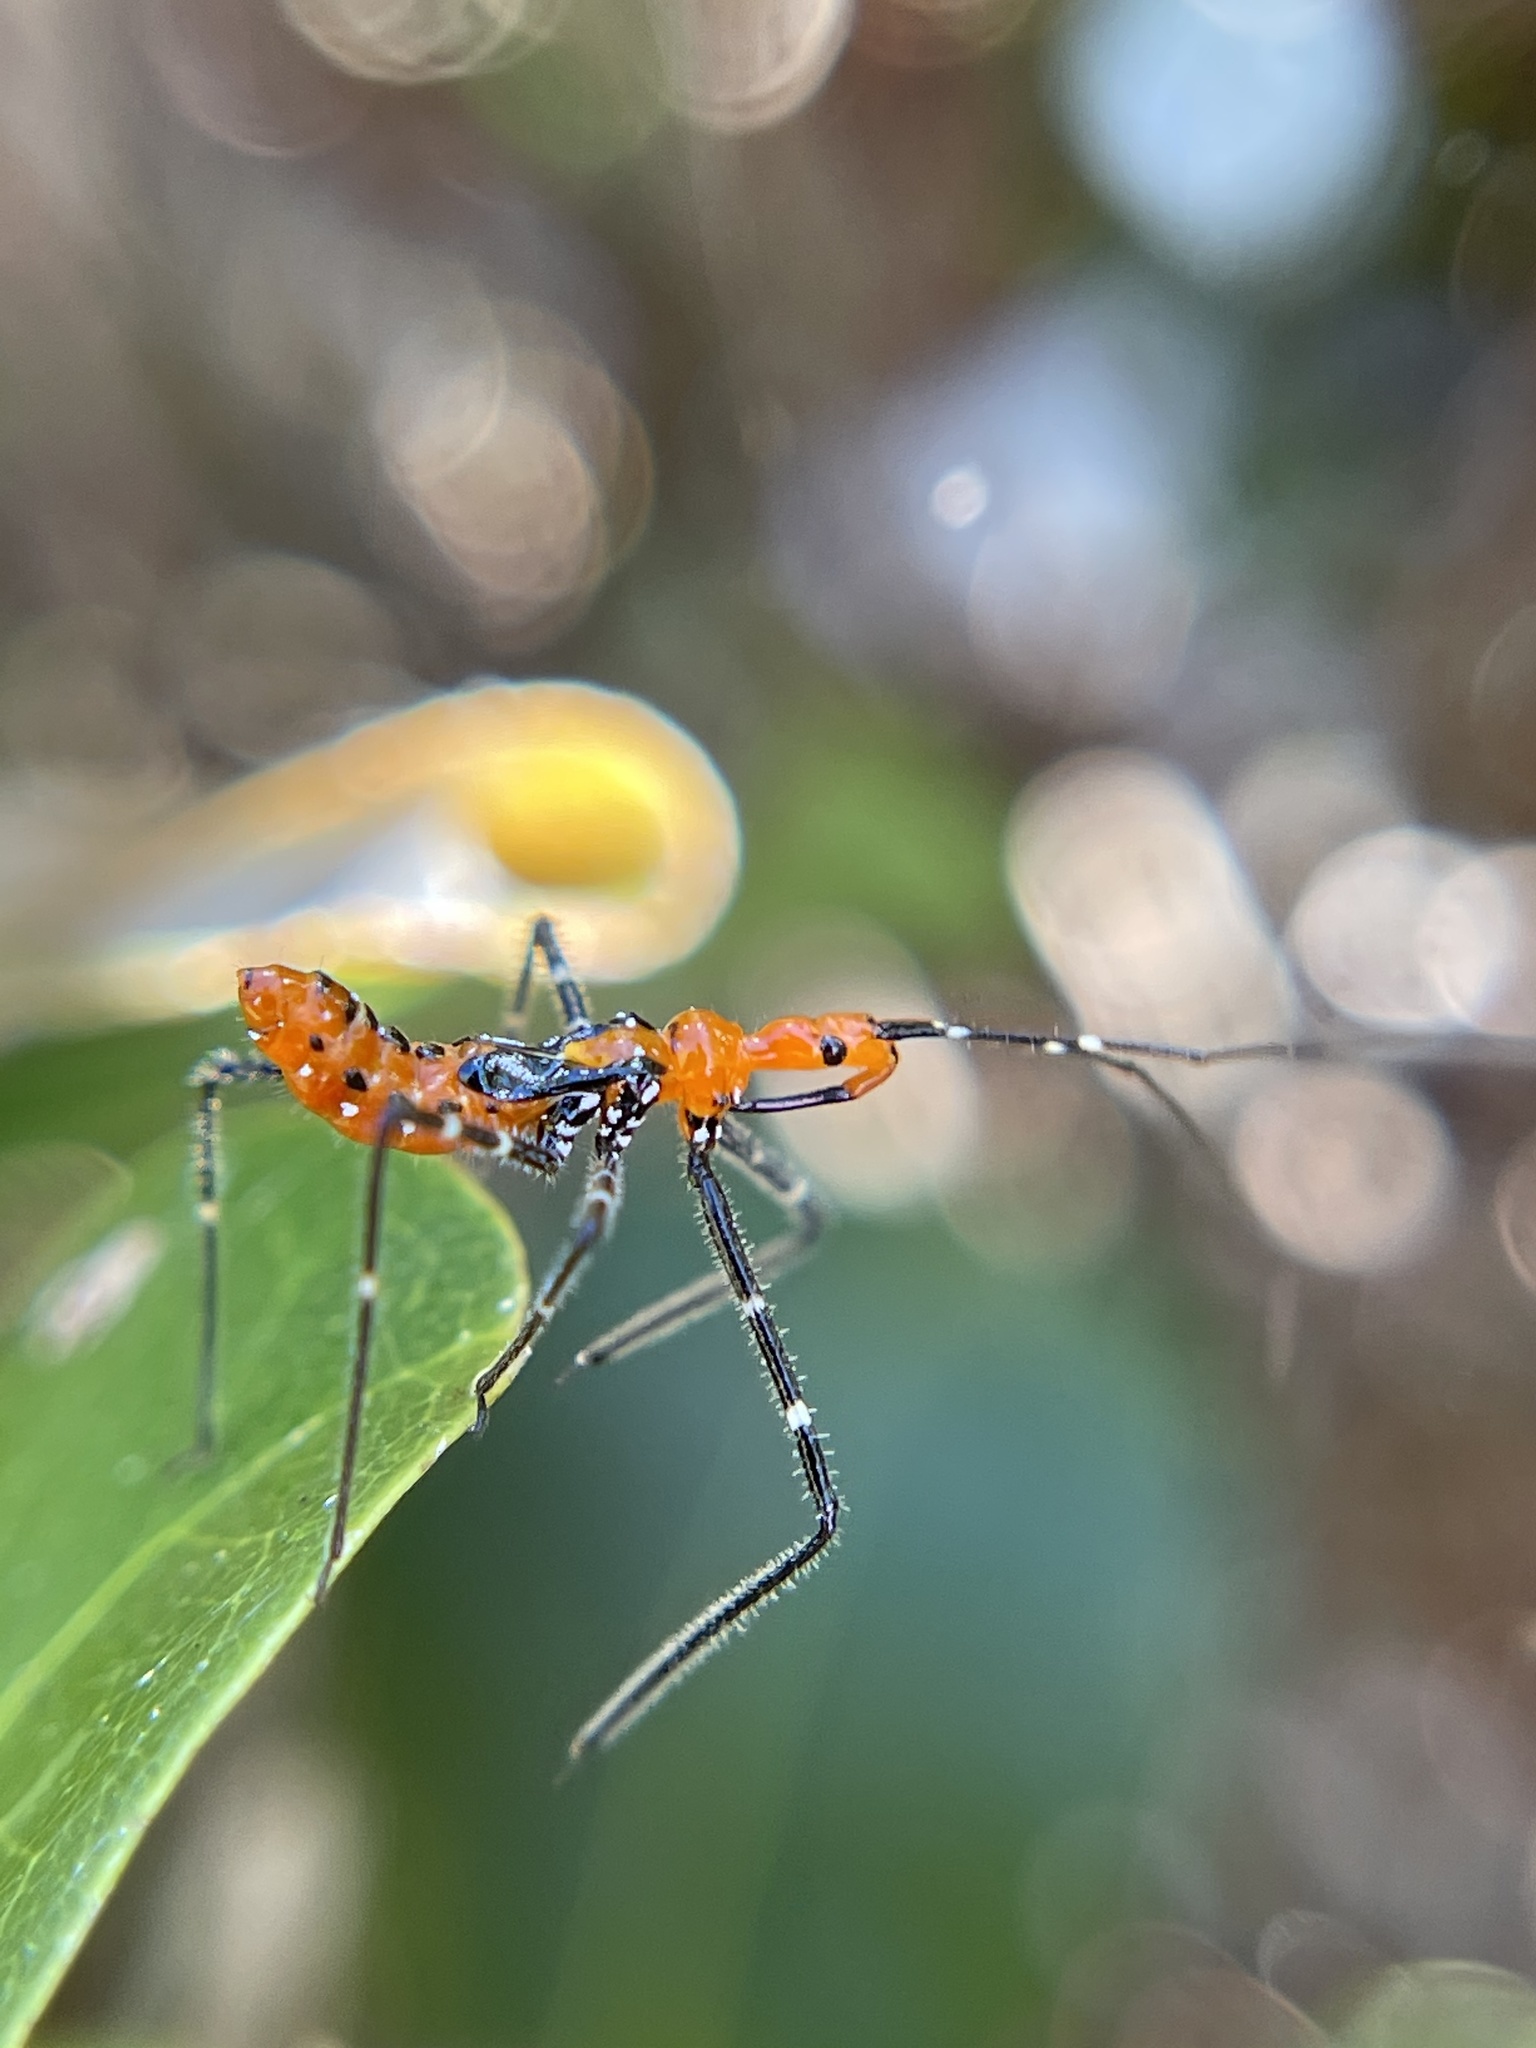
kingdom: Animalia
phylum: Arthropoda
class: Insecta
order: Hemiptera
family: Reduviidae
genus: Zelus
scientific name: Zelus longipes
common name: Milkweed assassin bug
